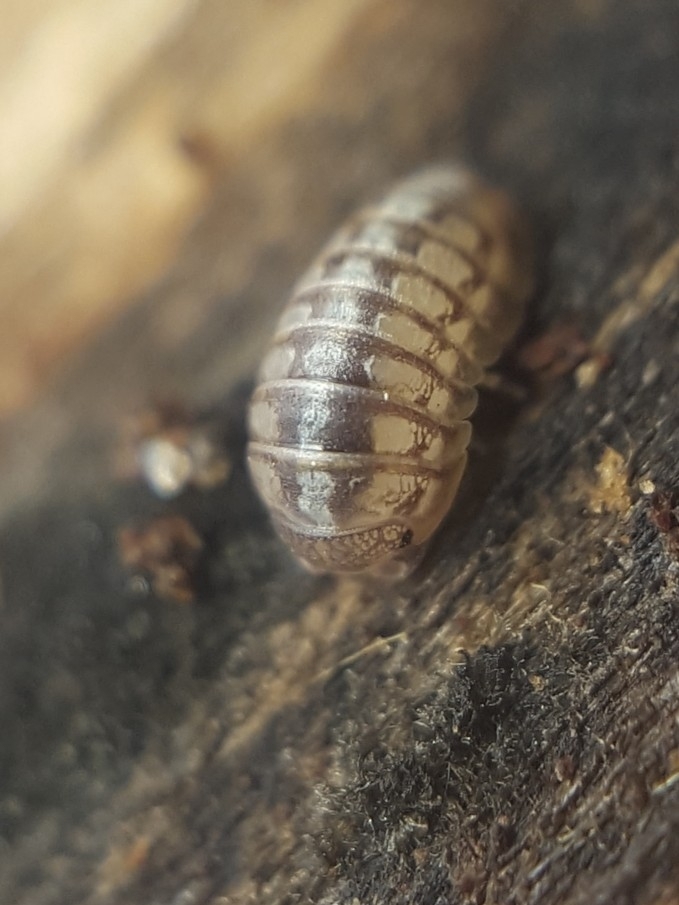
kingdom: Animalia
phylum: Arthropoda
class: Malacostraca
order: Isopoda
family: Armadillidiidae
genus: Armadillidium
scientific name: Armadillidium nasatum
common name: Isopod
